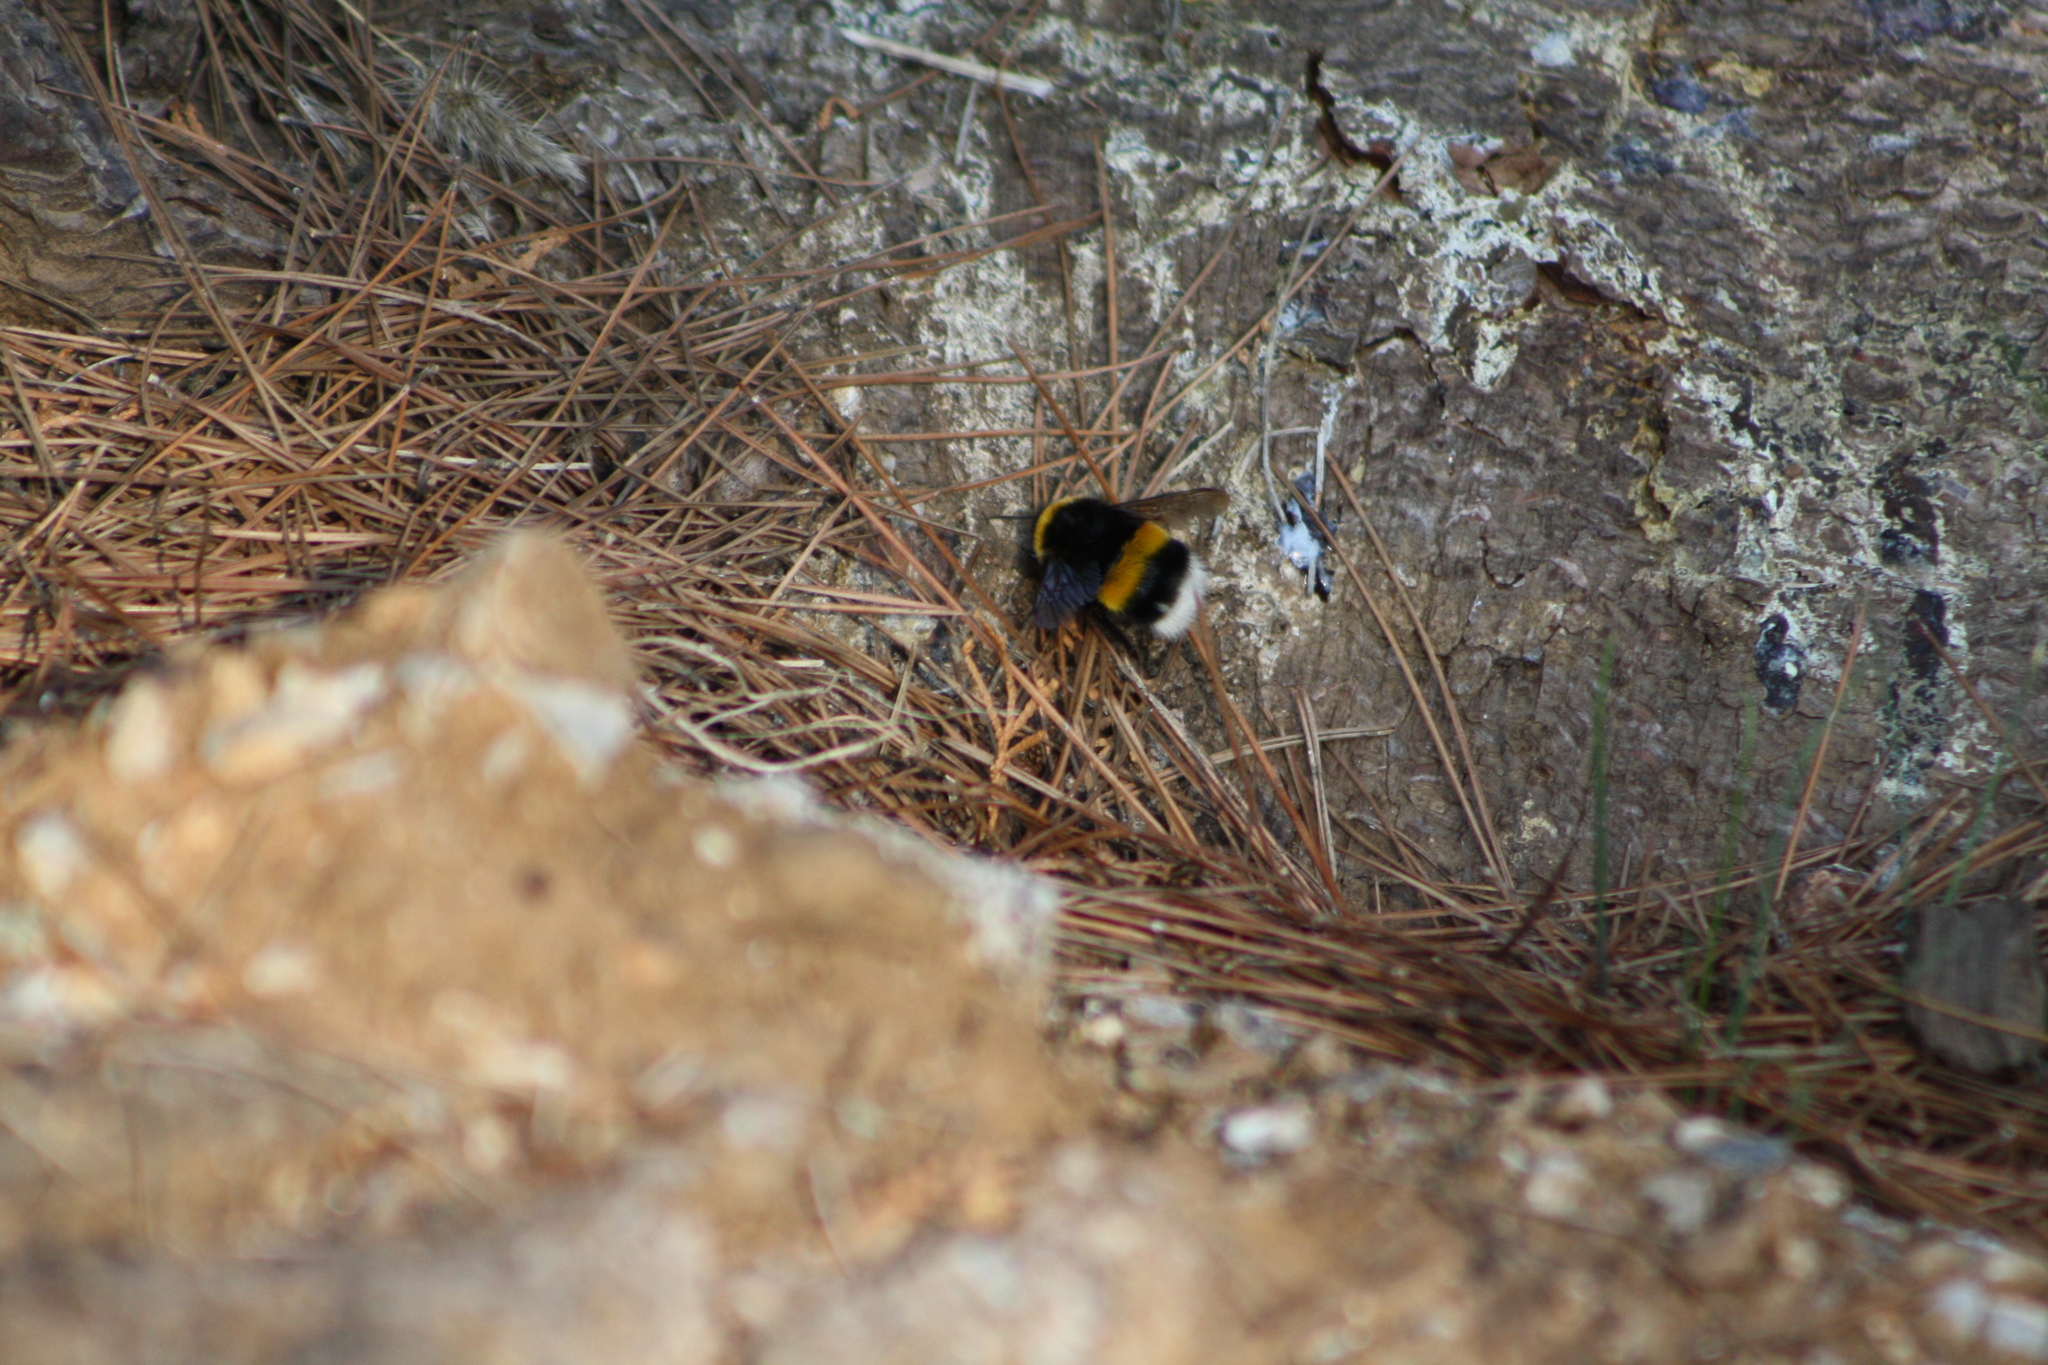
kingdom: Animalia
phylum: Arthropoda
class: Insecta
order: Hymenoptera
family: Apidae
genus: Bombus
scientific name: Bombus terrestris
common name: Buff-tailed bumblebee
